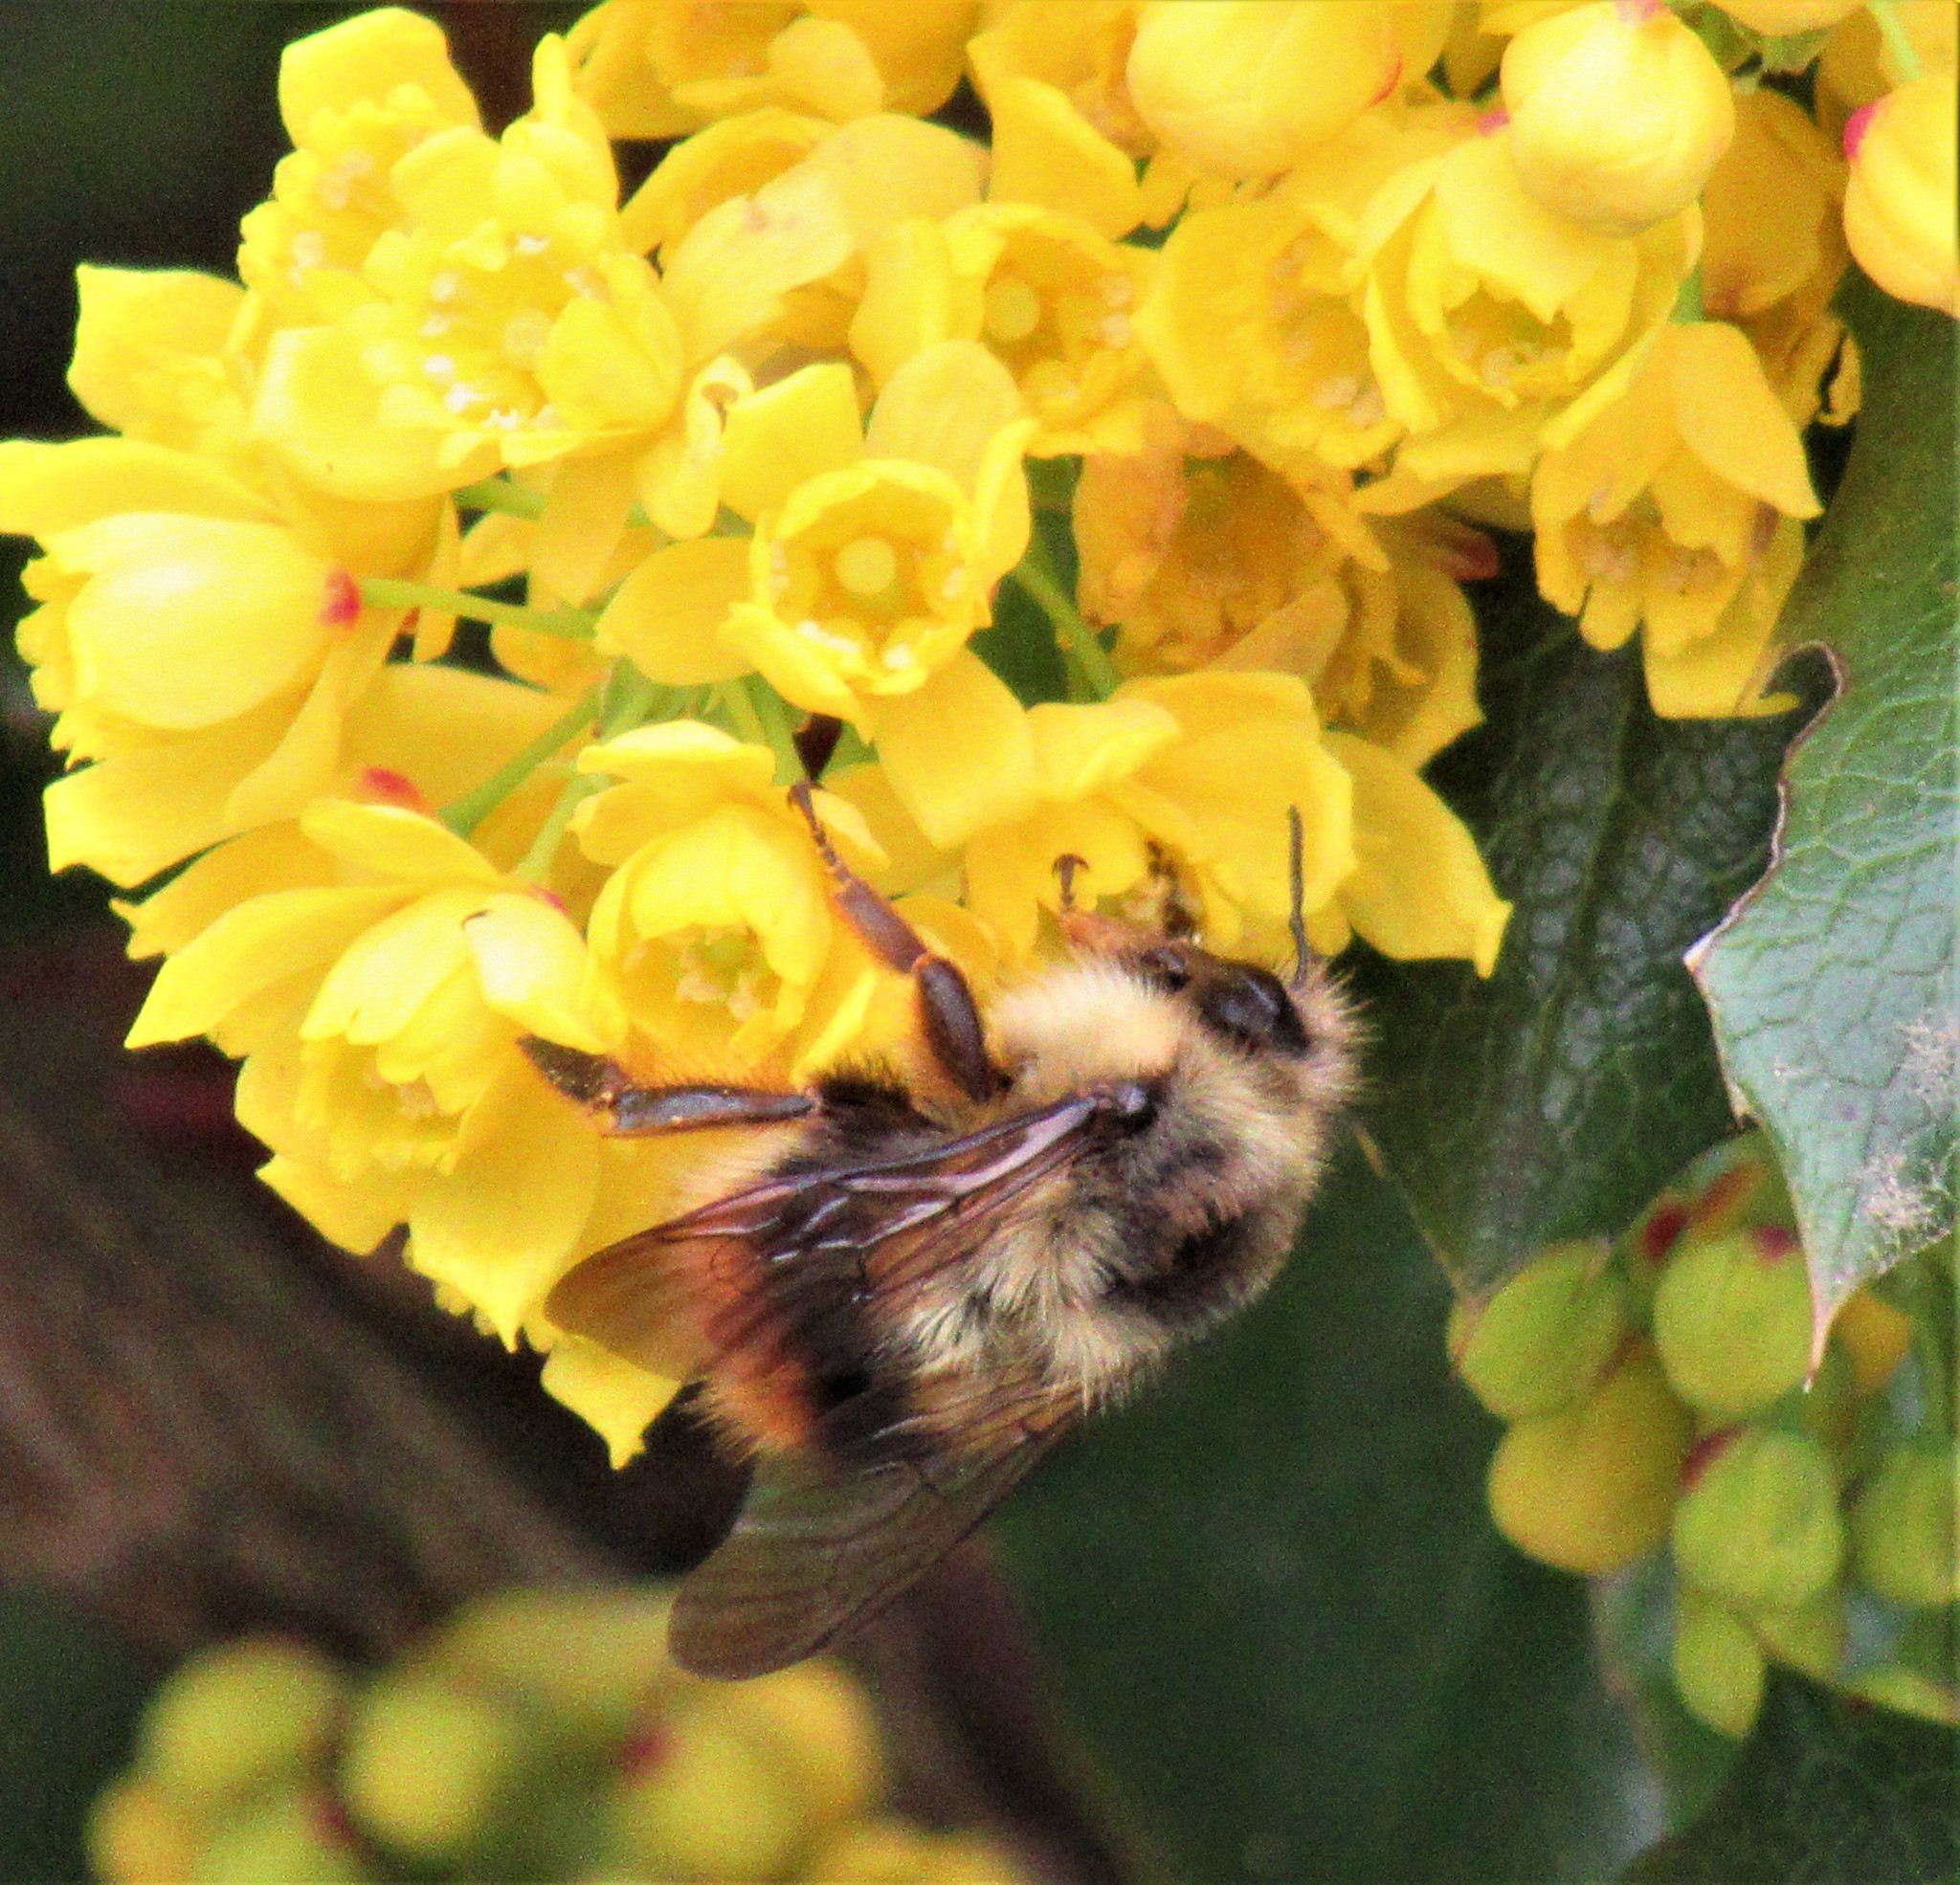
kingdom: Animalia
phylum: Arthropoda
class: Insecta
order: Hymenoptera
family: Apidae
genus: Bombus
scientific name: Bombus mixtus
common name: Fuzzy-horned bumble bee
